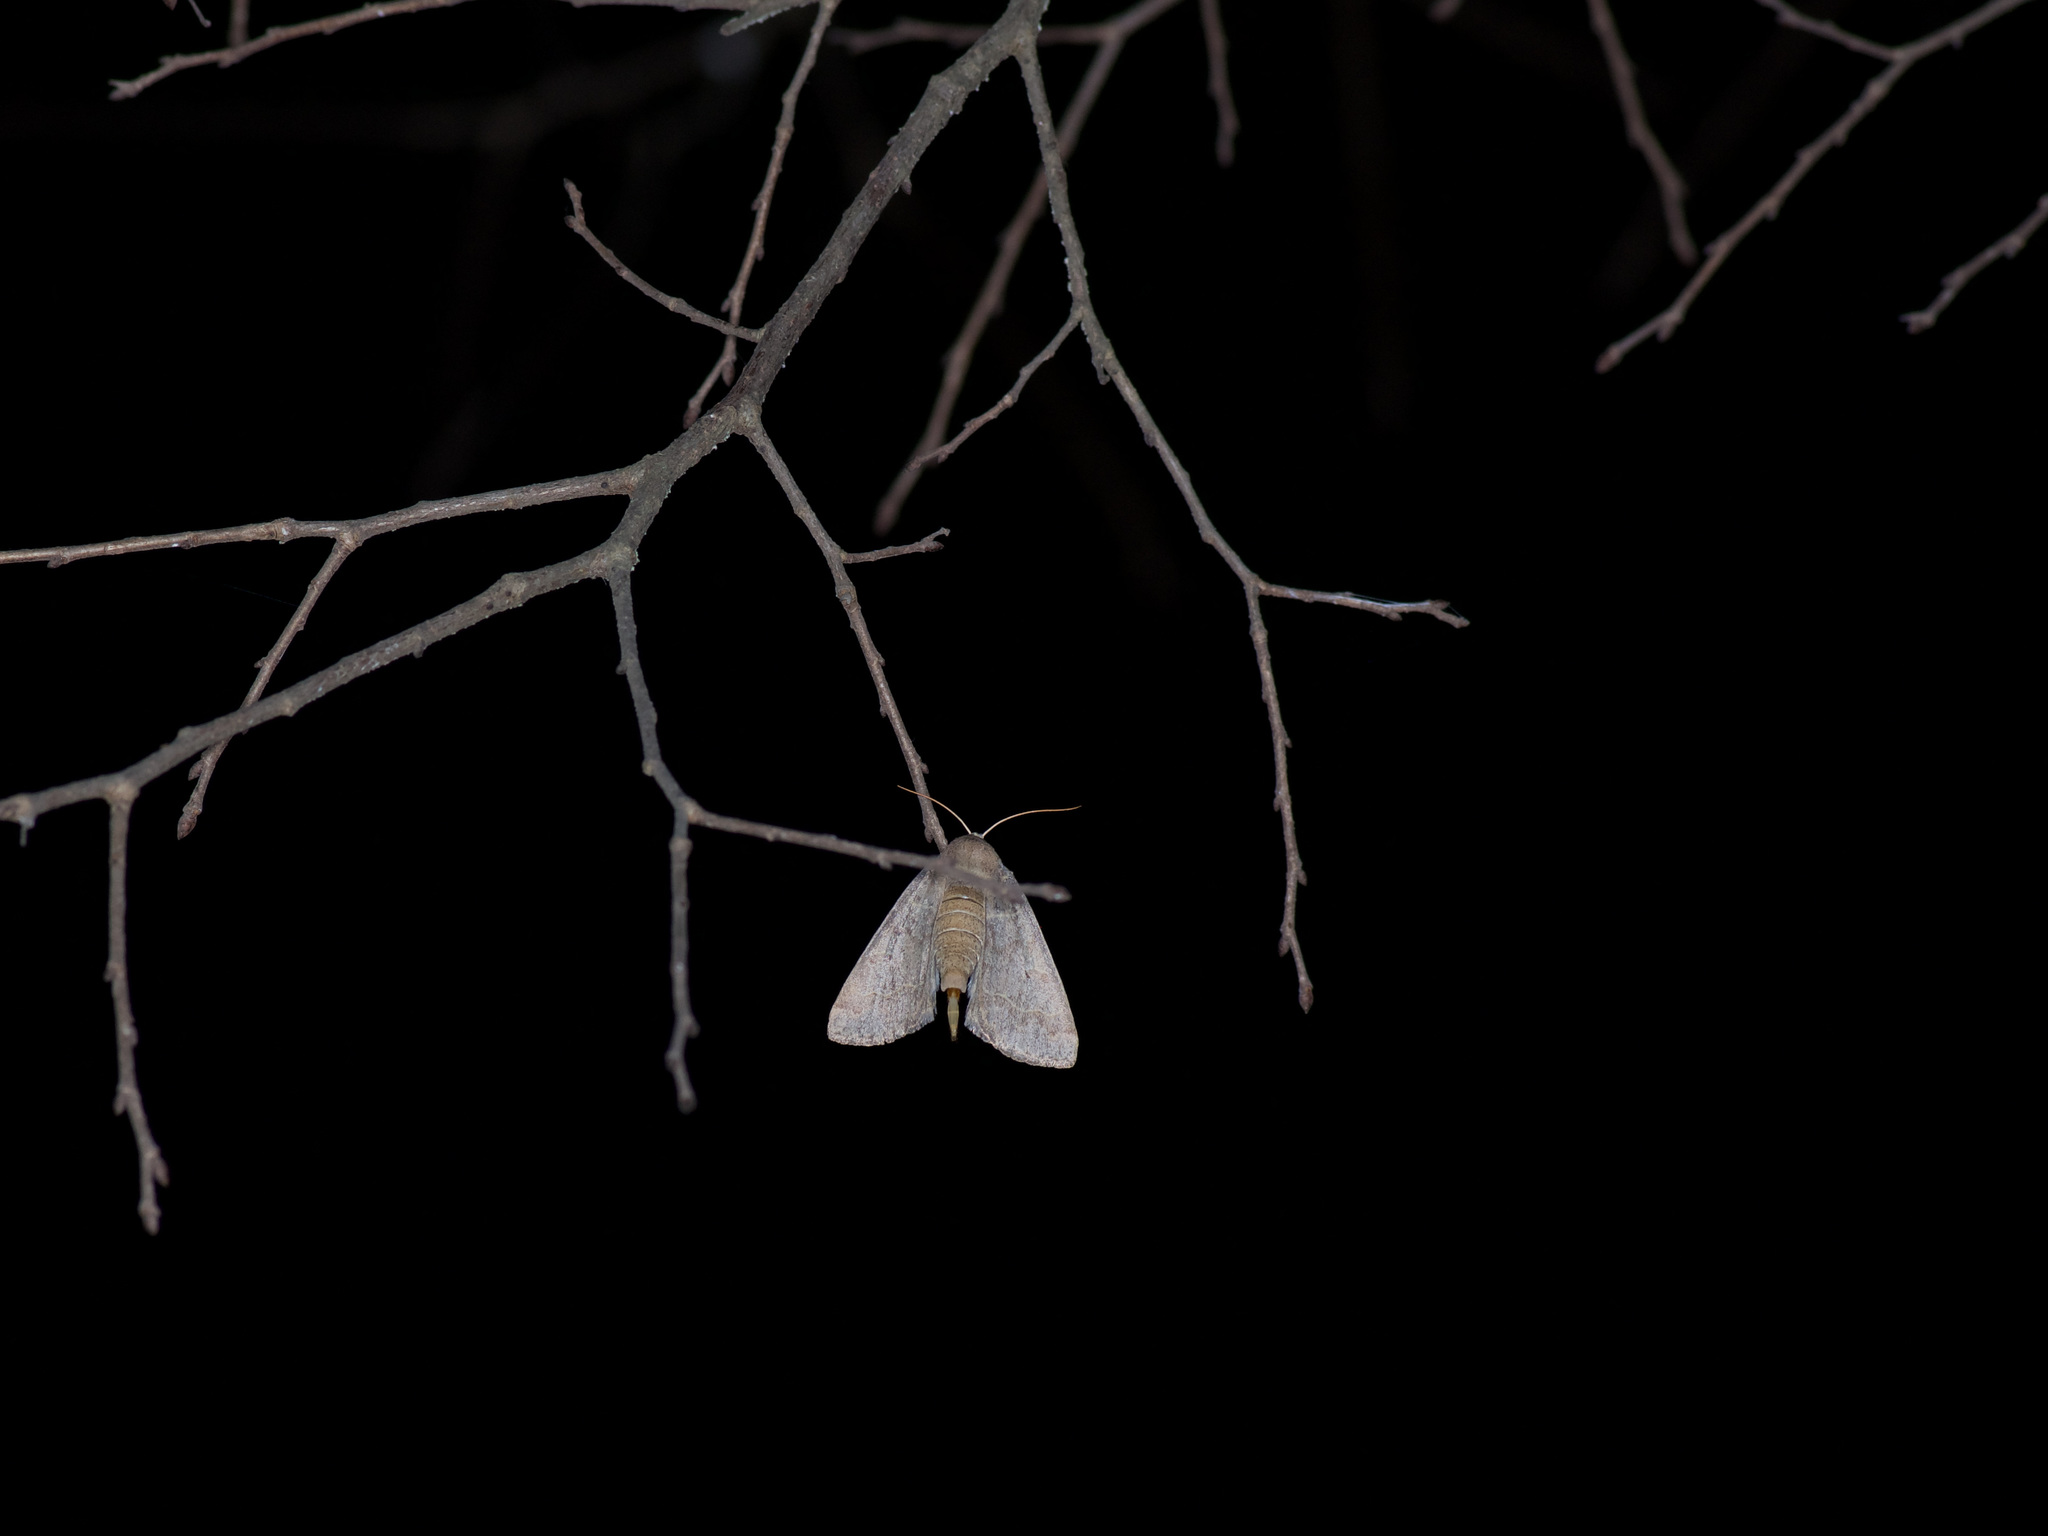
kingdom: Animalia
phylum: Arthropoda
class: Insecta
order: Lepidoptera
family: Erebidae
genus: Phoberia
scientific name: Phoberia atomaris
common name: Common oak moth
